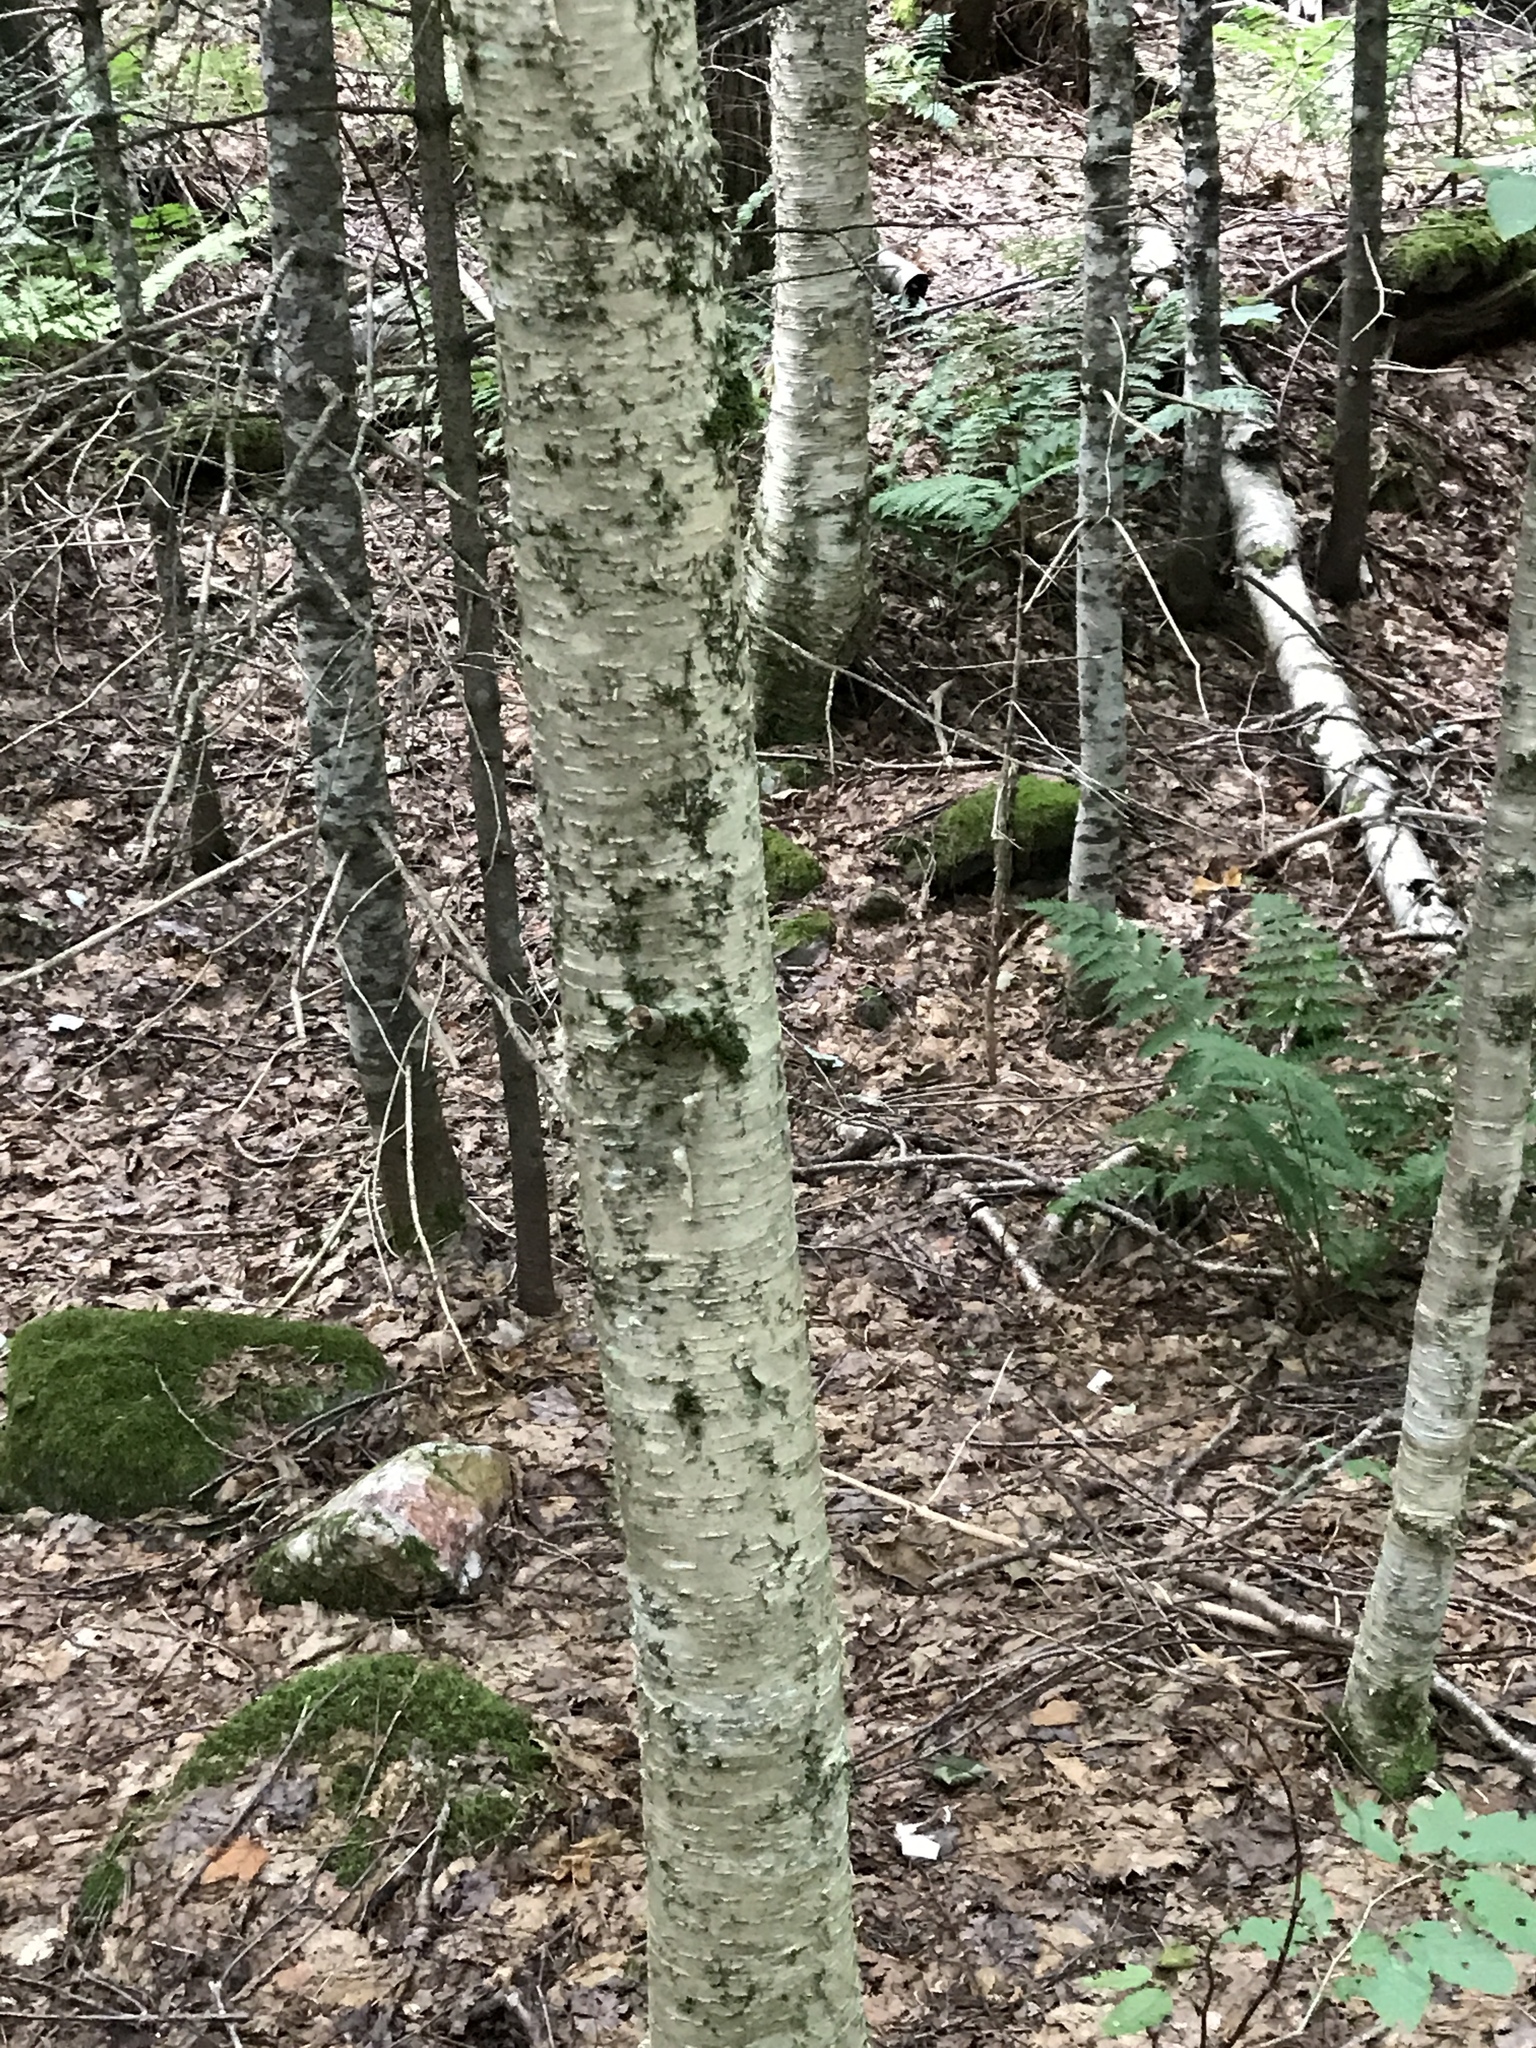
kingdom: Plantae
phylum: Tracheophyta
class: Magnoliopsida
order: Fagales
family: Betulaceae
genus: Betula
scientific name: Betula alleghaniensis
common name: Yellow birch
